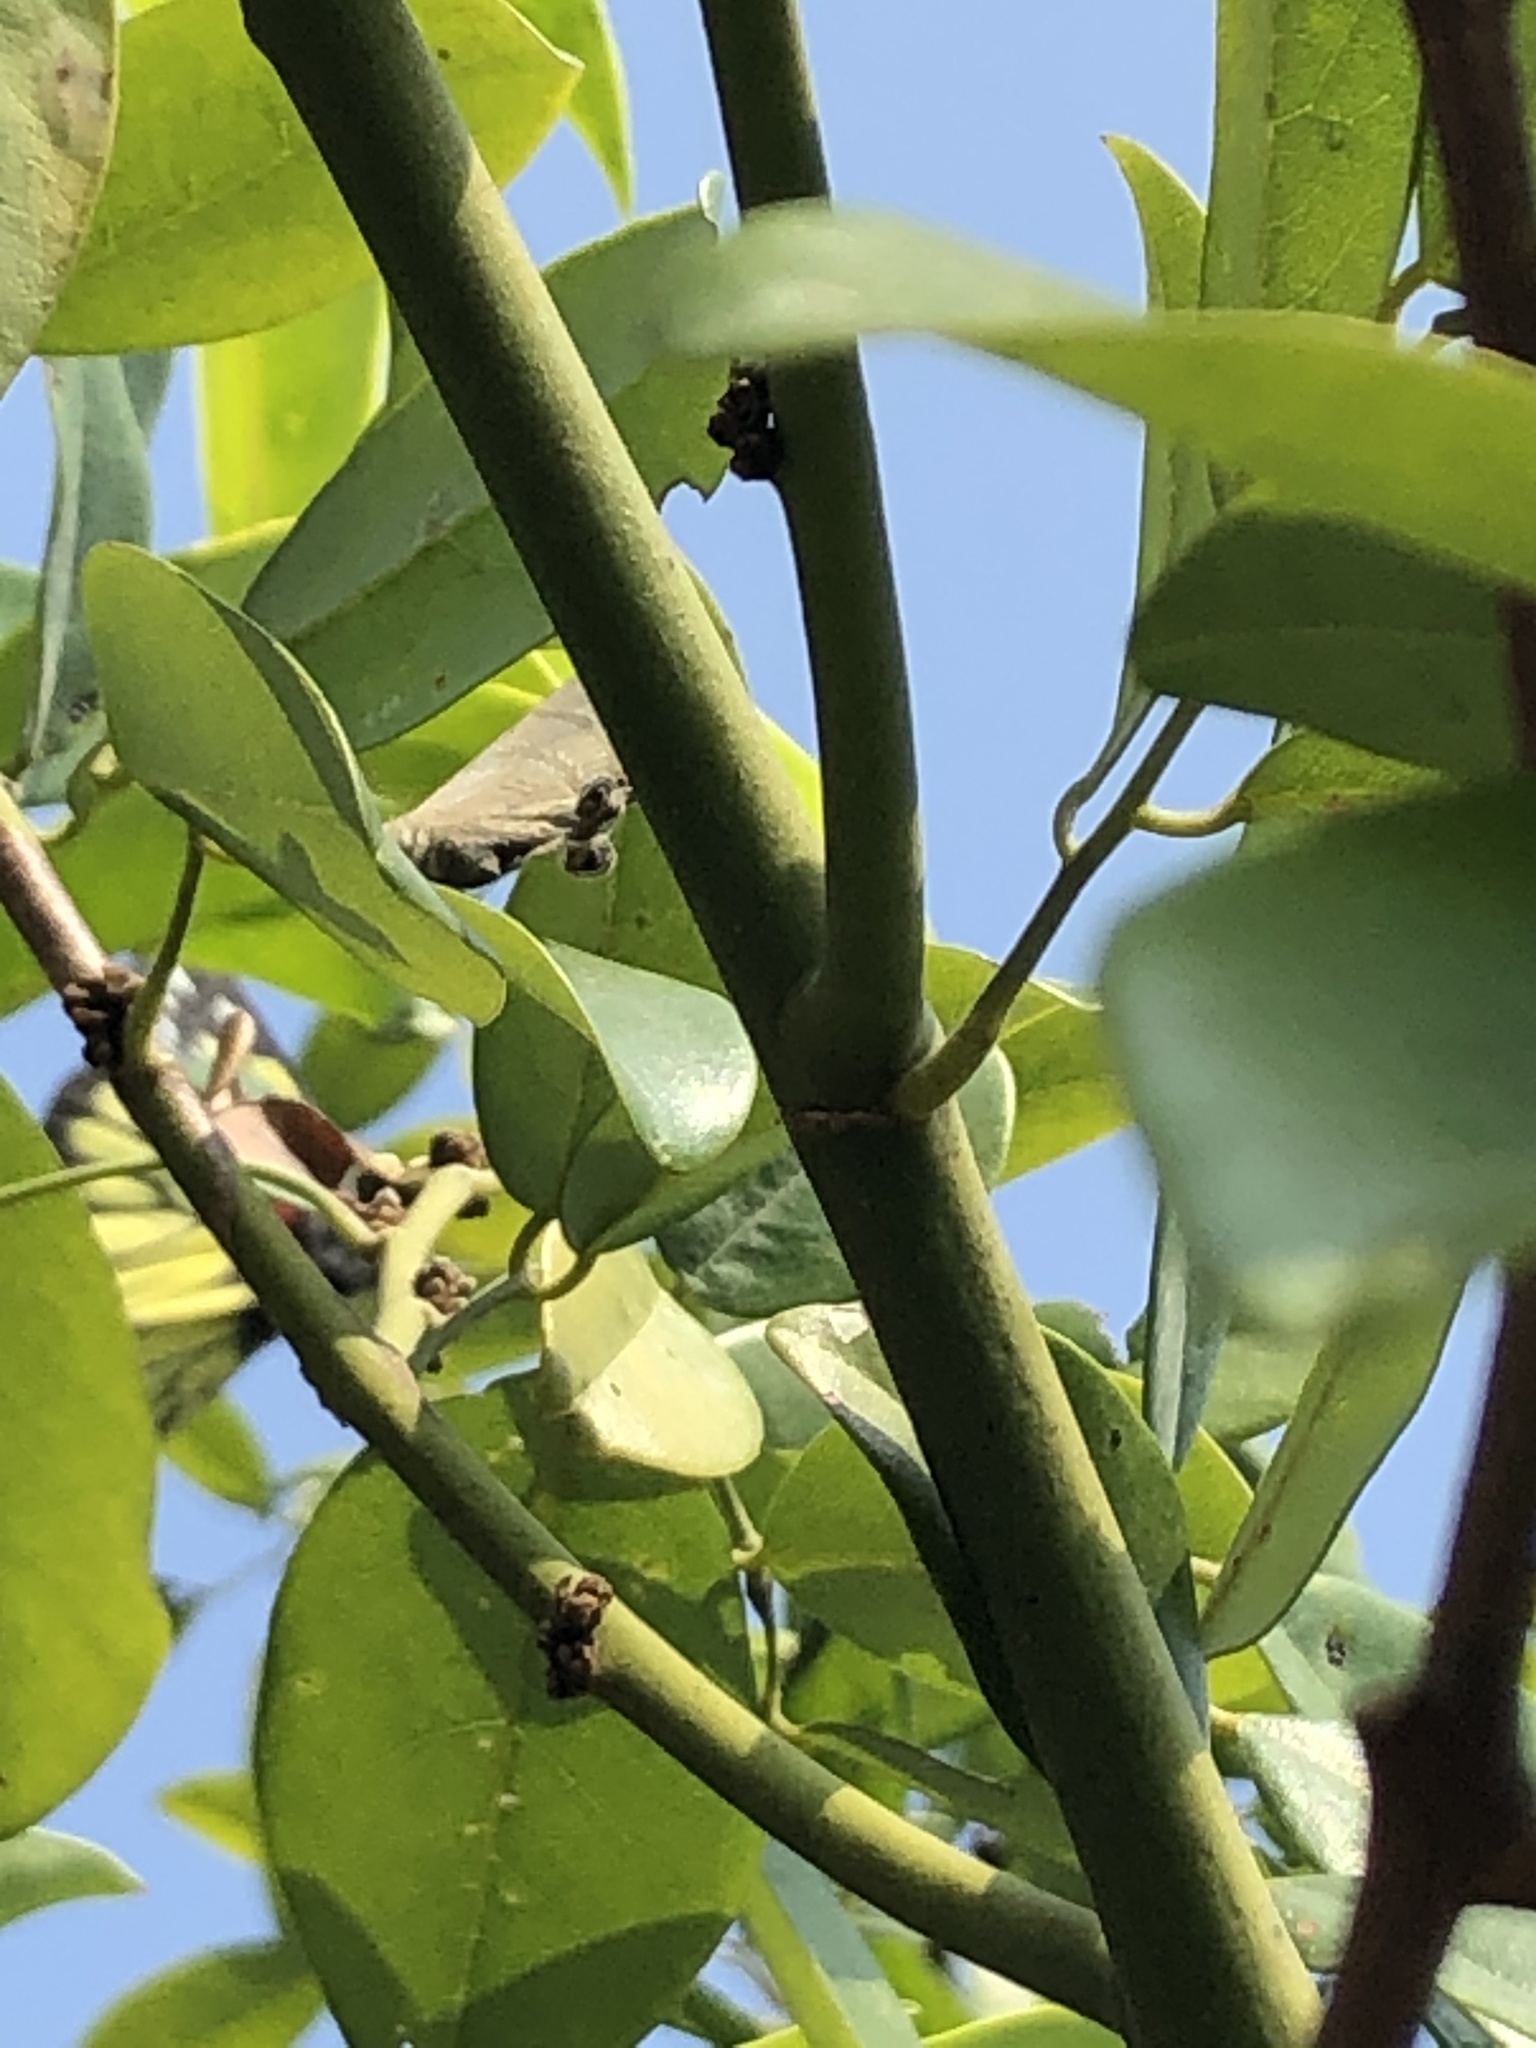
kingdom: Animalia
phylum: Arthropoda
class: Insecta
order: Lepidoptera
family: Lycaenidae
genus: Rapala
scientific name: Rapala manea
